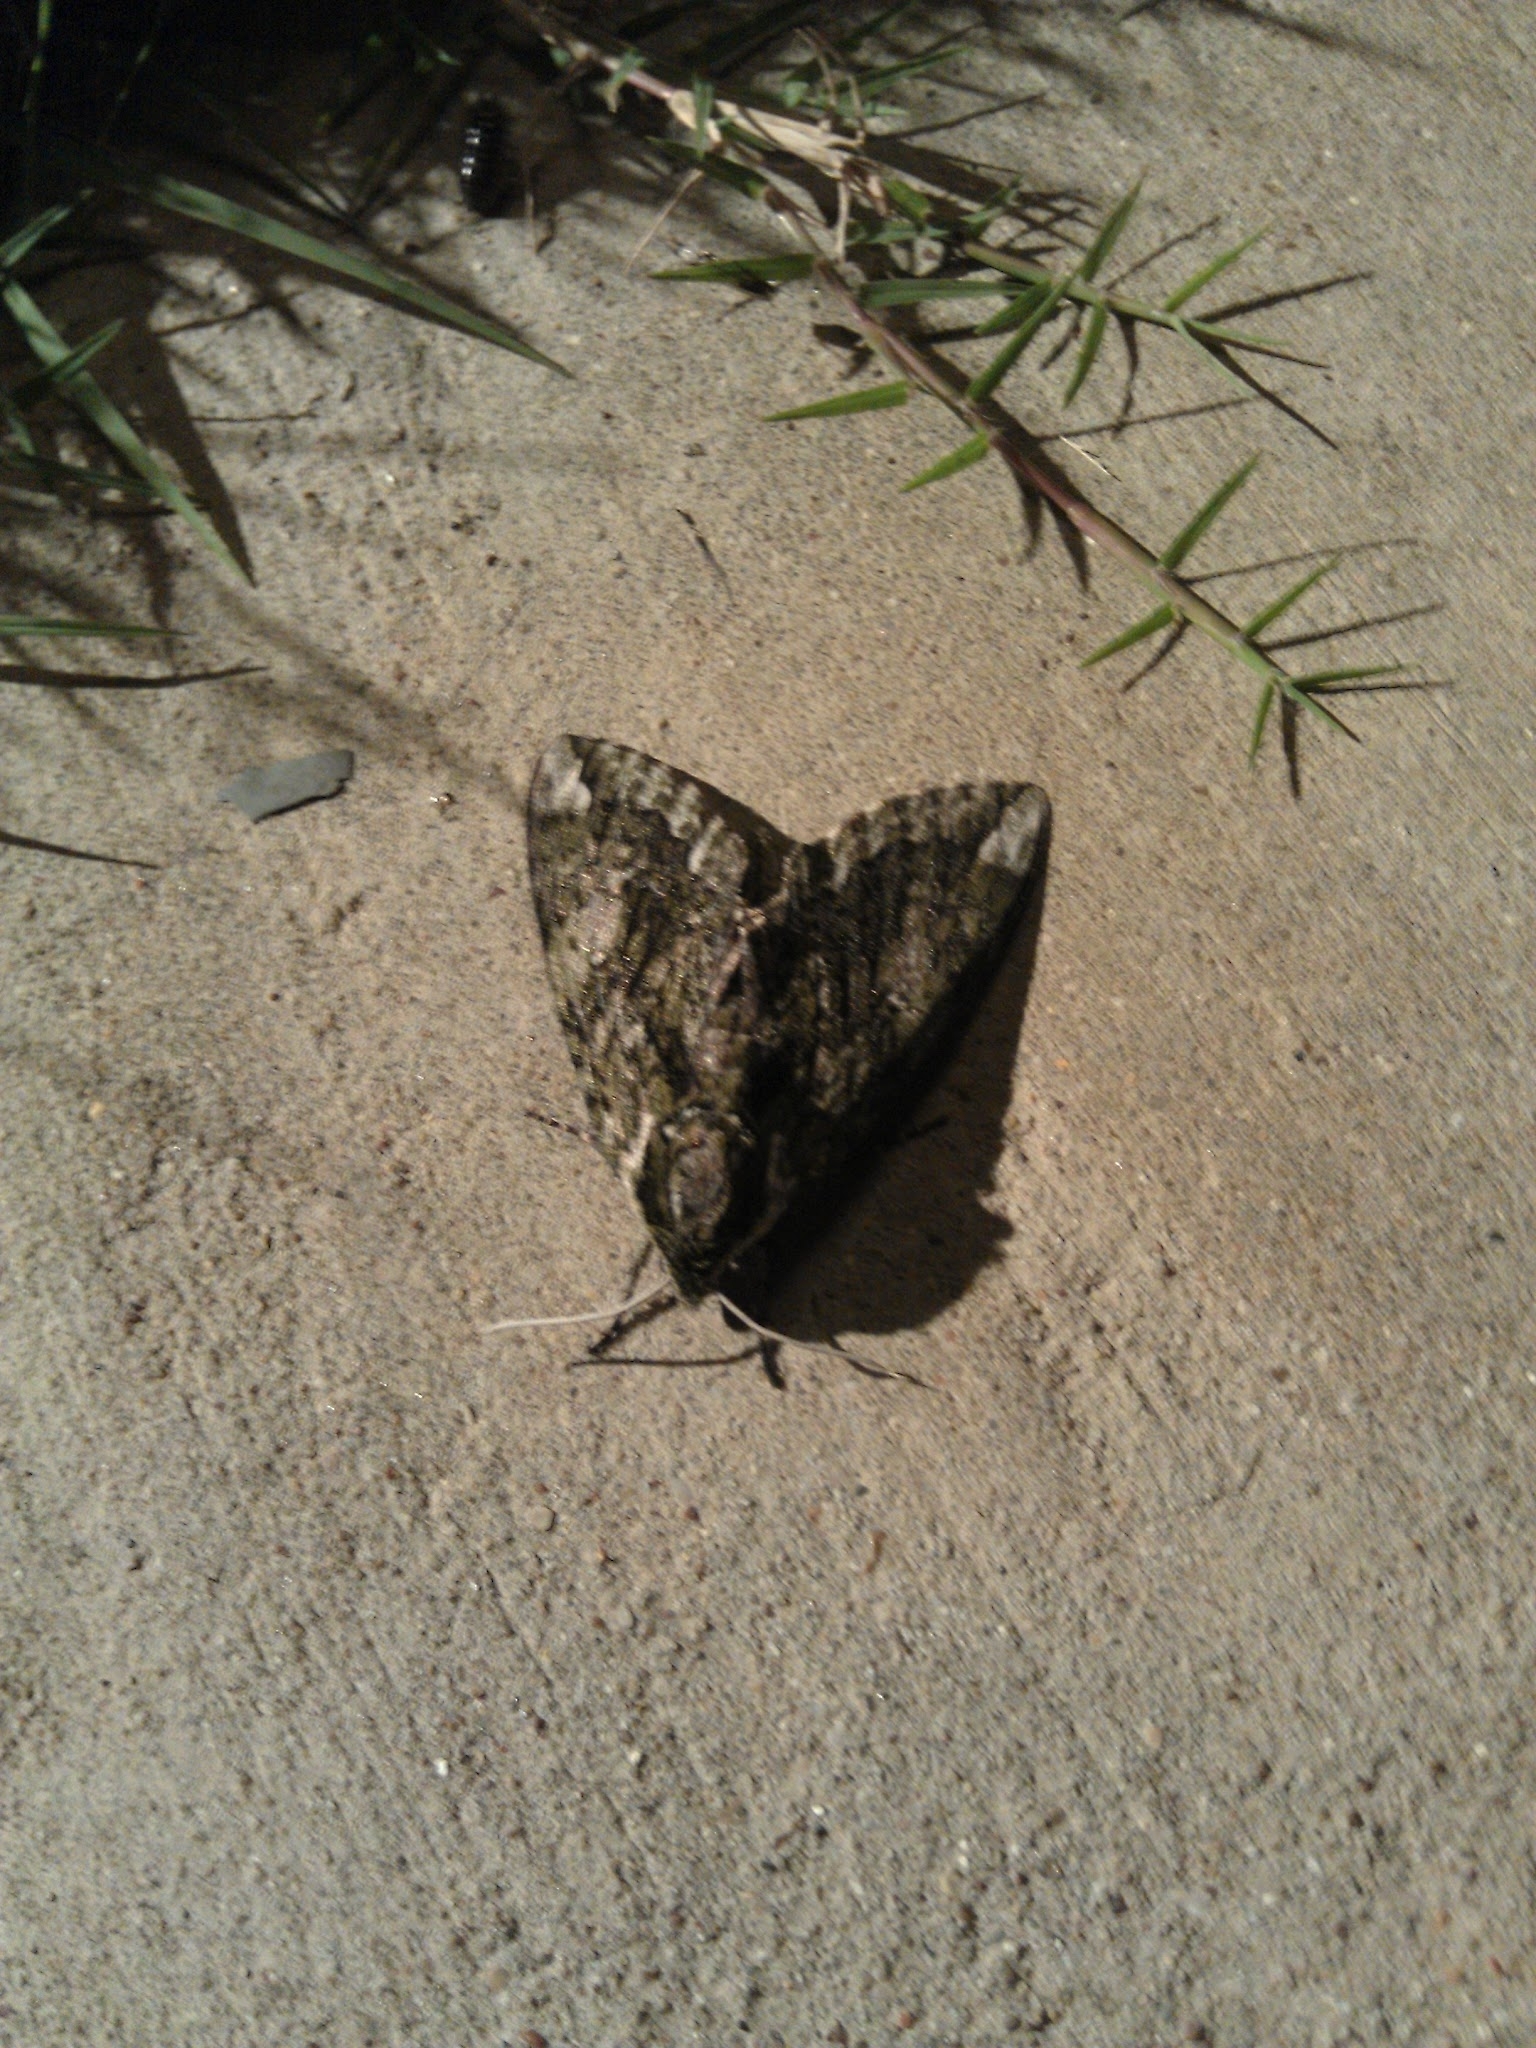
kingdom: Animalia
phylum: Arthropoda
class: Insecta
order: Lepidoptera
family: Sphingidae
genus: Ceratomia
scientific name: Ceratomia hageni
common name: Hagen's sphinx
